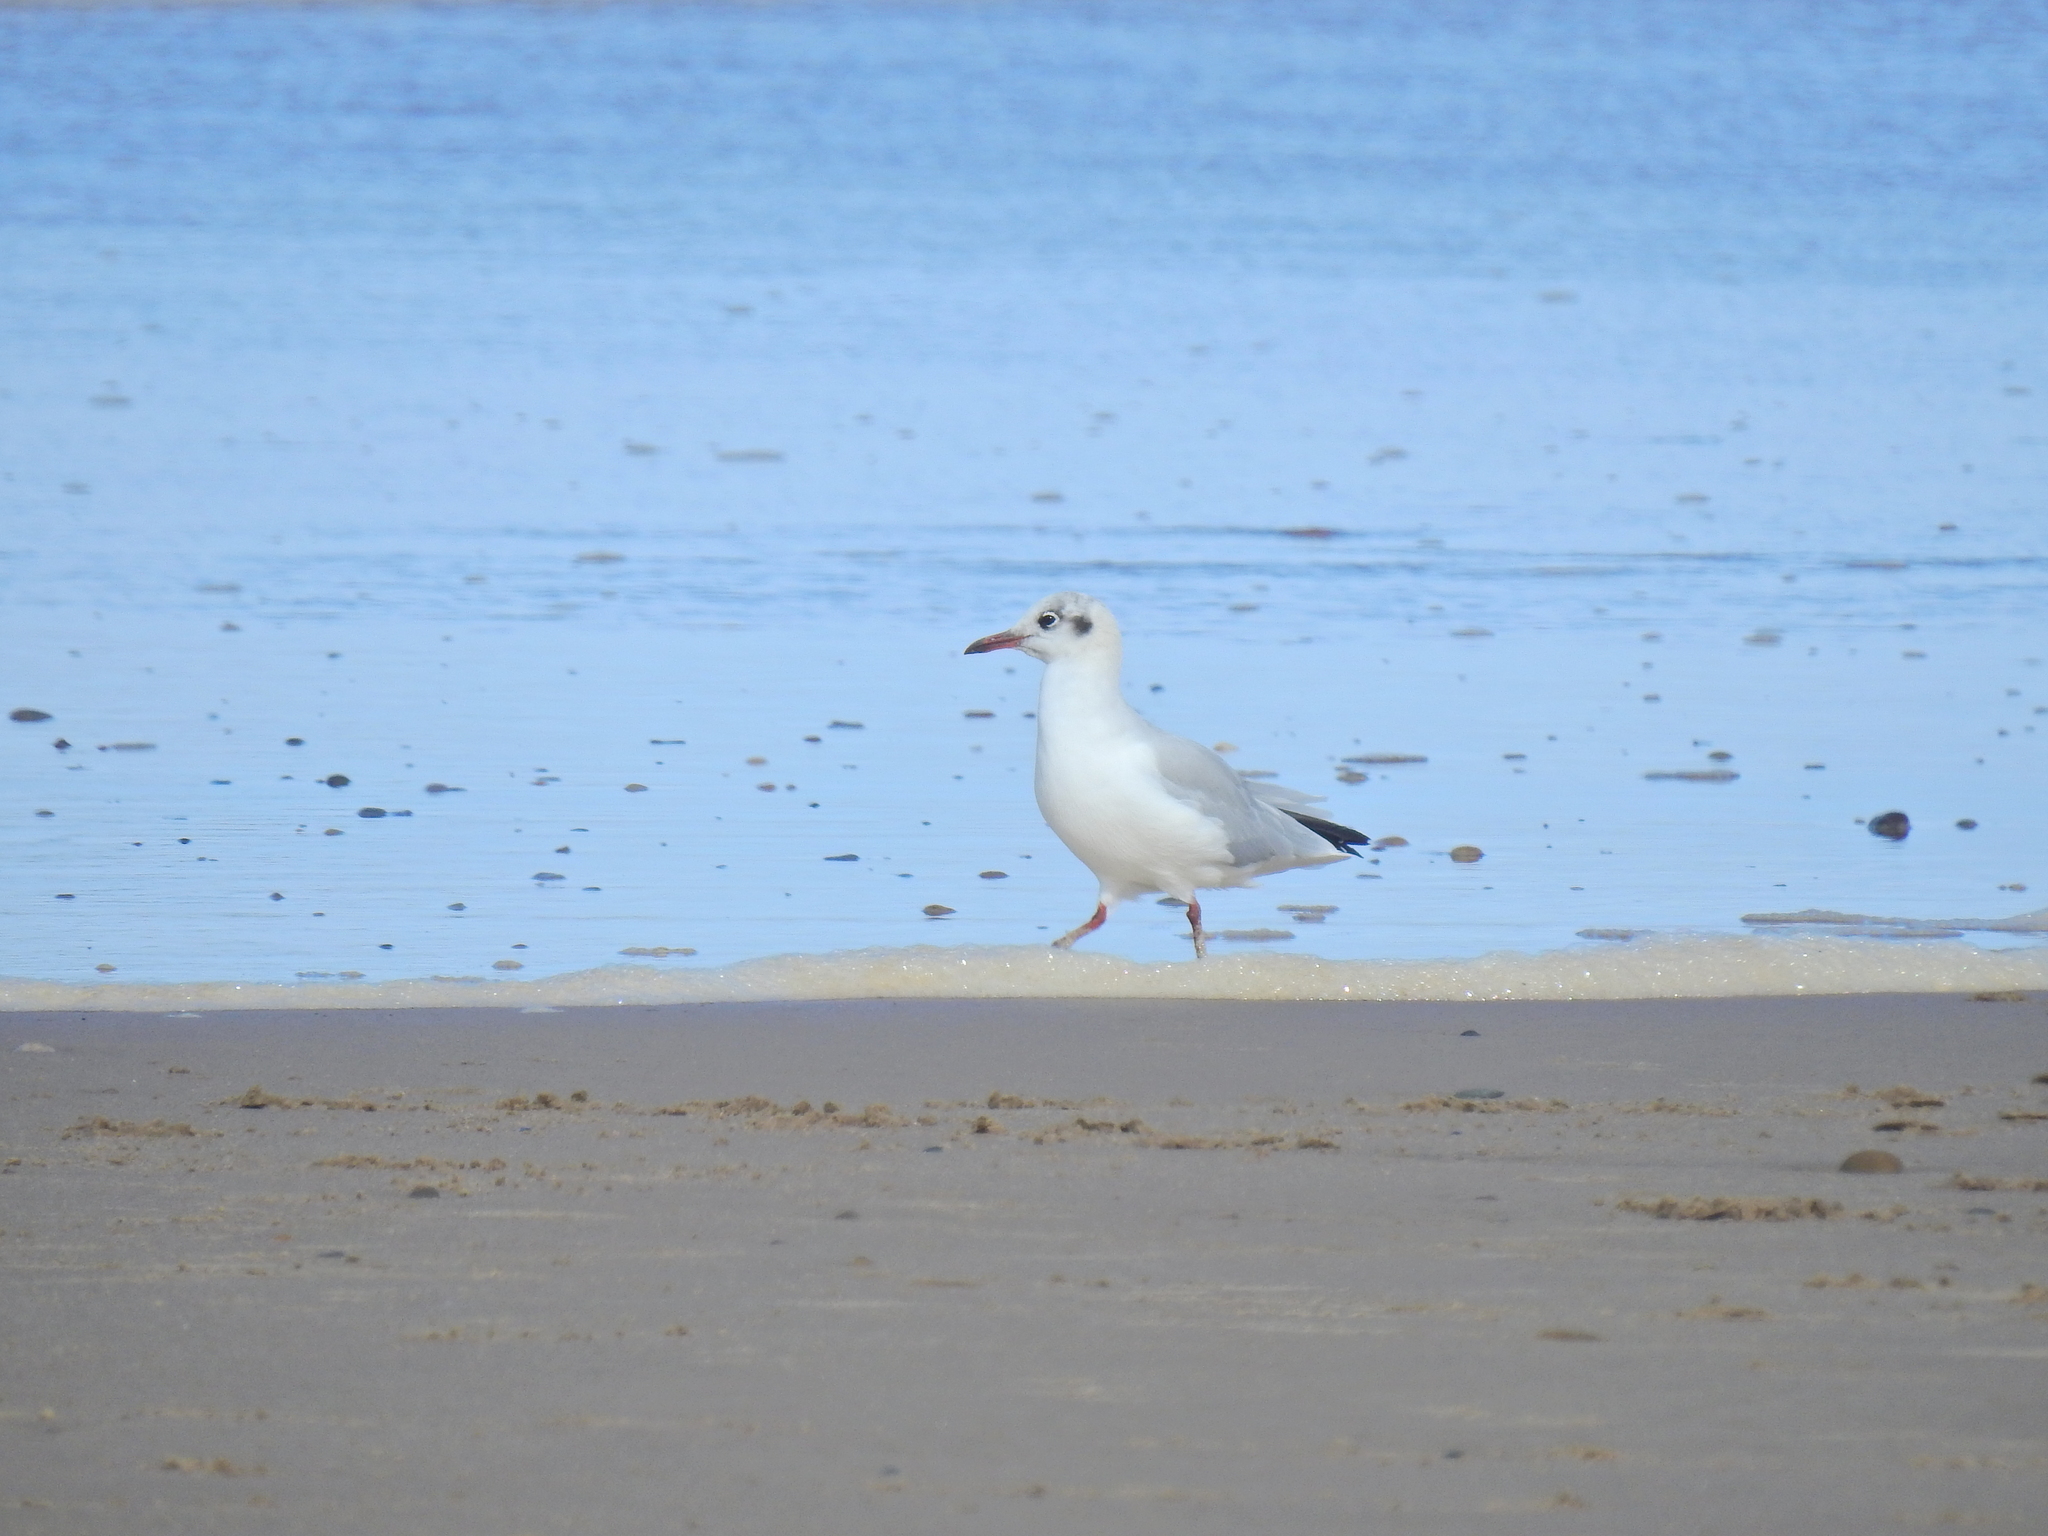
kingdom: Animalia
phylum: Chordata
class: Aves
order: Charadriiformes
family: Laridae
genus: Chroicocephalus
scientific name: Chroicocephalus ridibundus
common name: Black-headed gull
